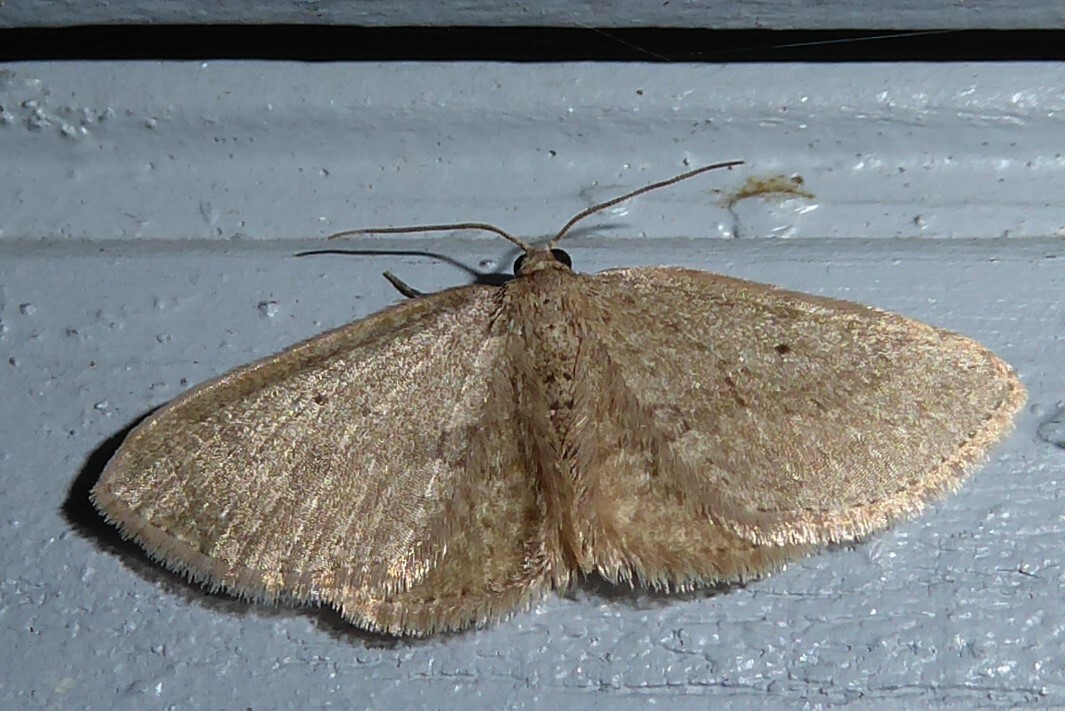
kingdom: Animalia
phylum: Arthropoda
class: Insecta
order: Lepidoptera
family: Geometridae
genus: Poecilasthena
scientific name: Poecilasthena schistaria
